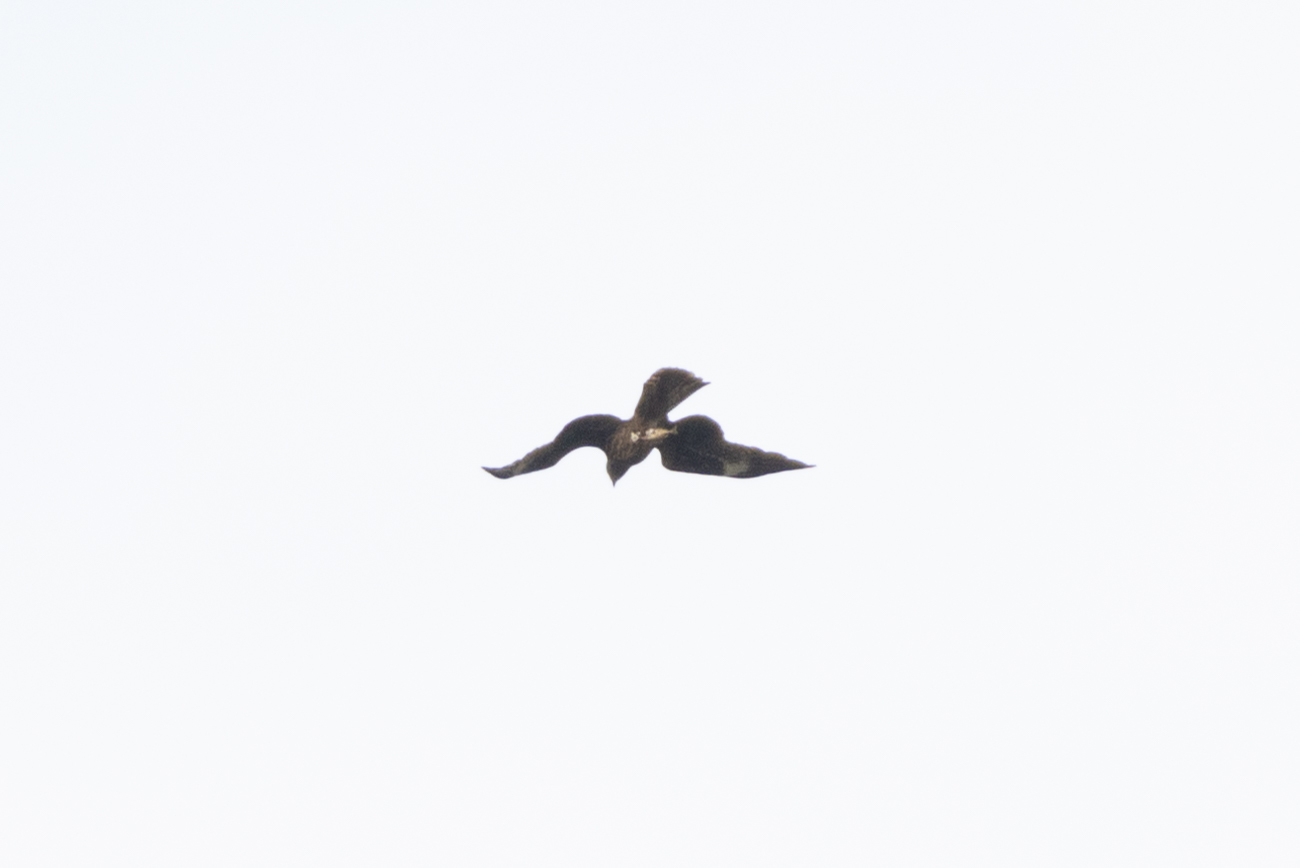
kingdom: Animalia
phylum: Chordata
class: Aves
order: Accipitriformes
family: Accipitridae
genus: Milvus
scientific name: Milvus migrans
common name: Black kite
